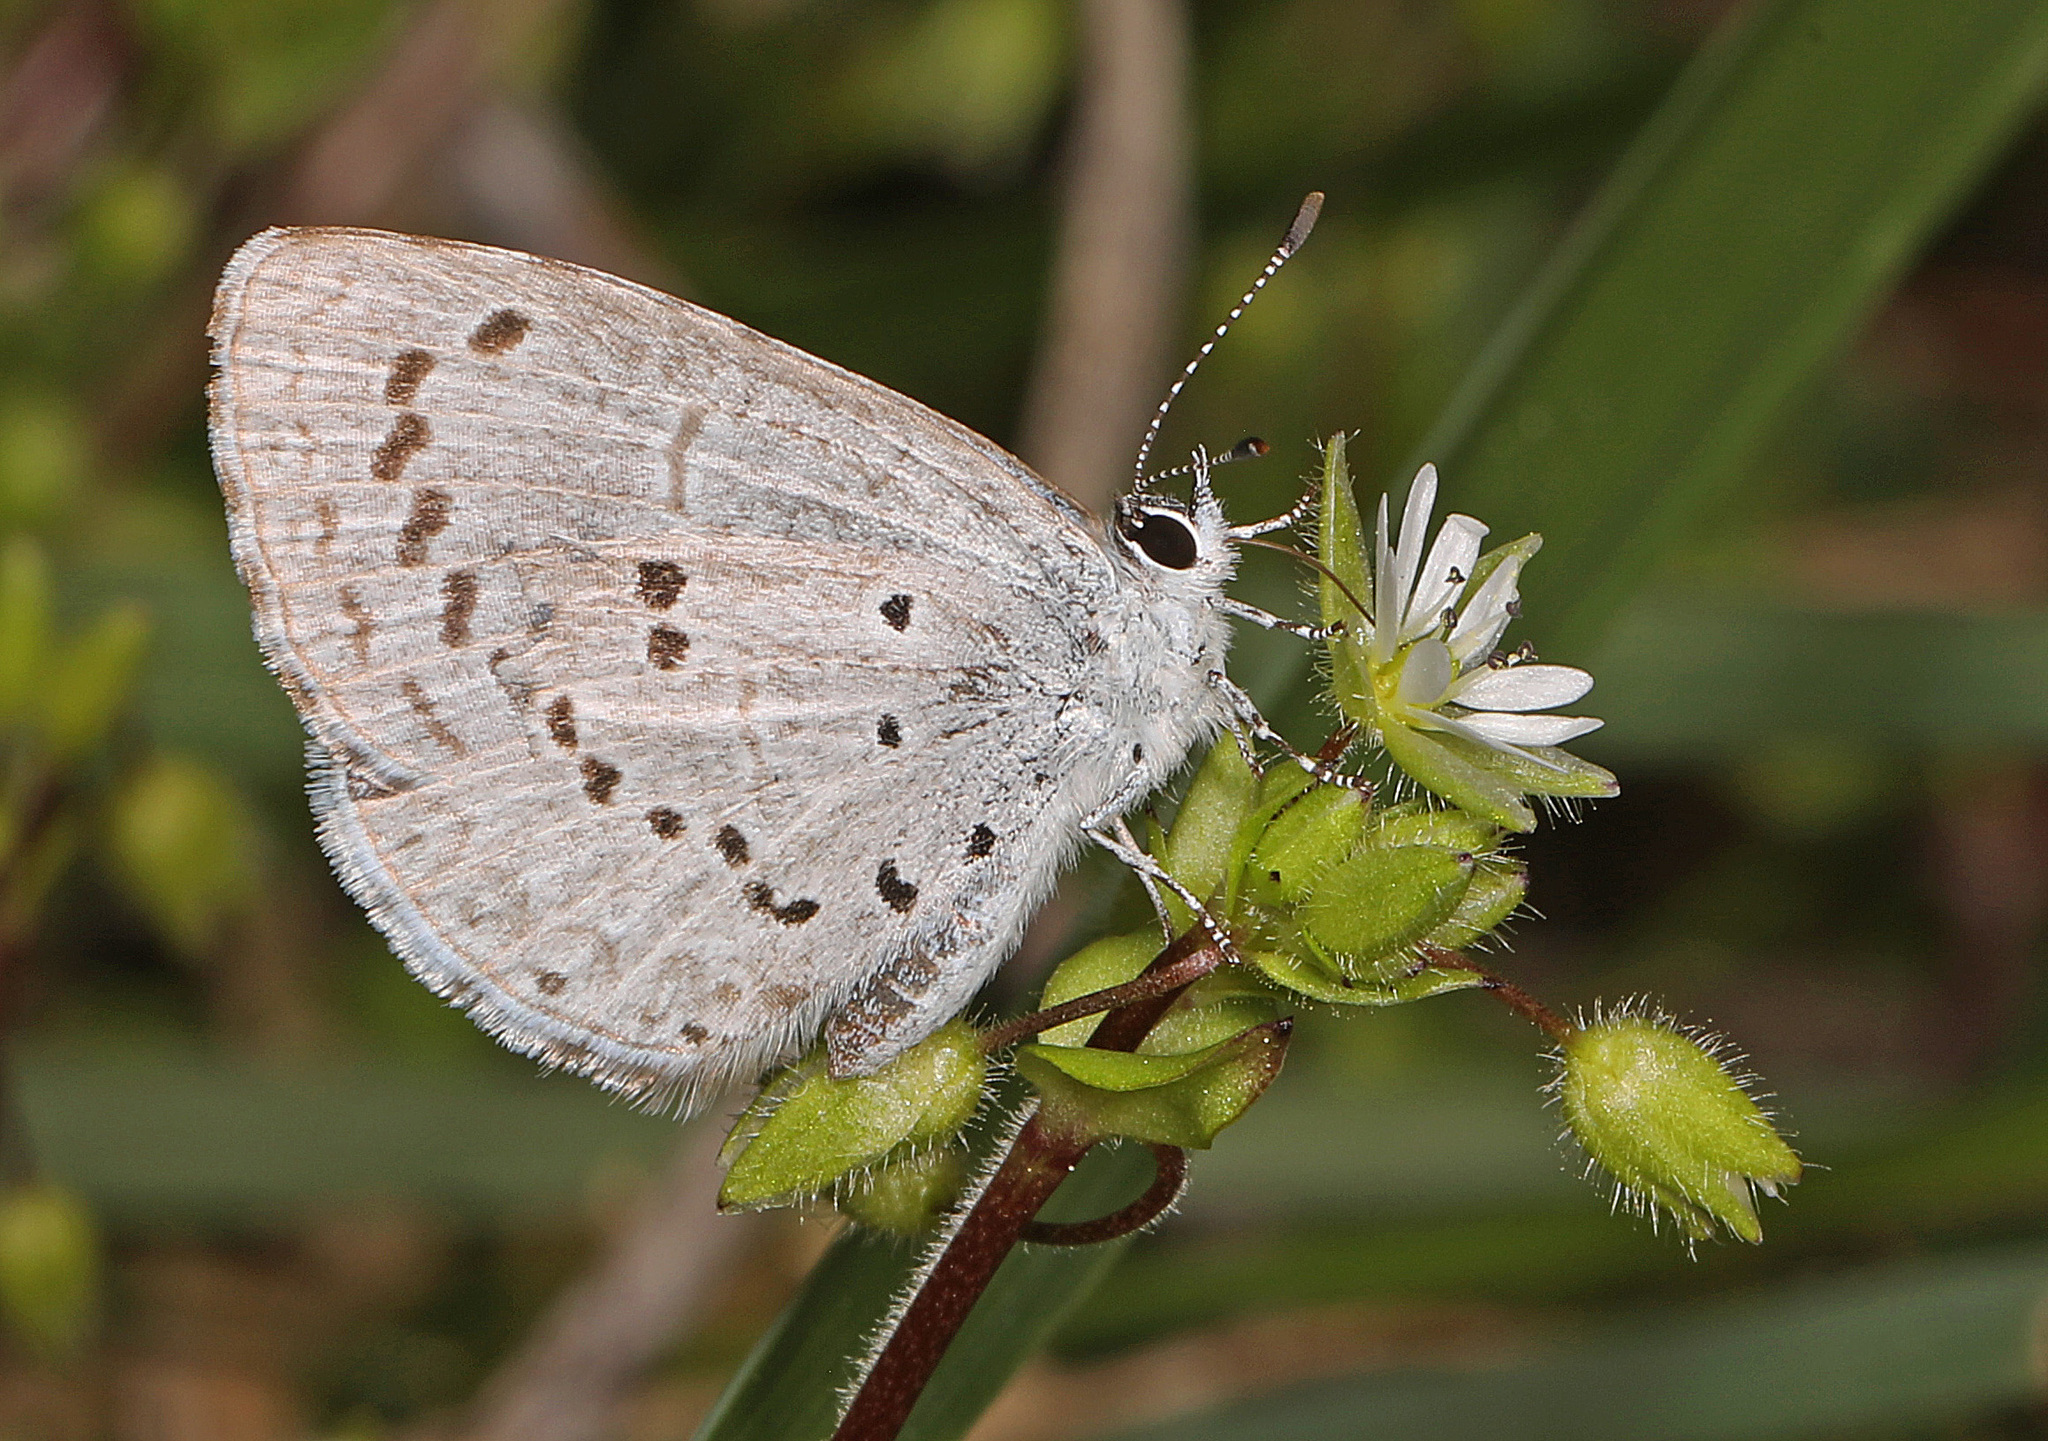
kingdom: Animalia
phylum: Arthropoda
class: Insecta
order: Lepidoptera
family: Lycaenidae
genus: Celastrina
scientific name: Celastrina ladon
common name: Spring azure
